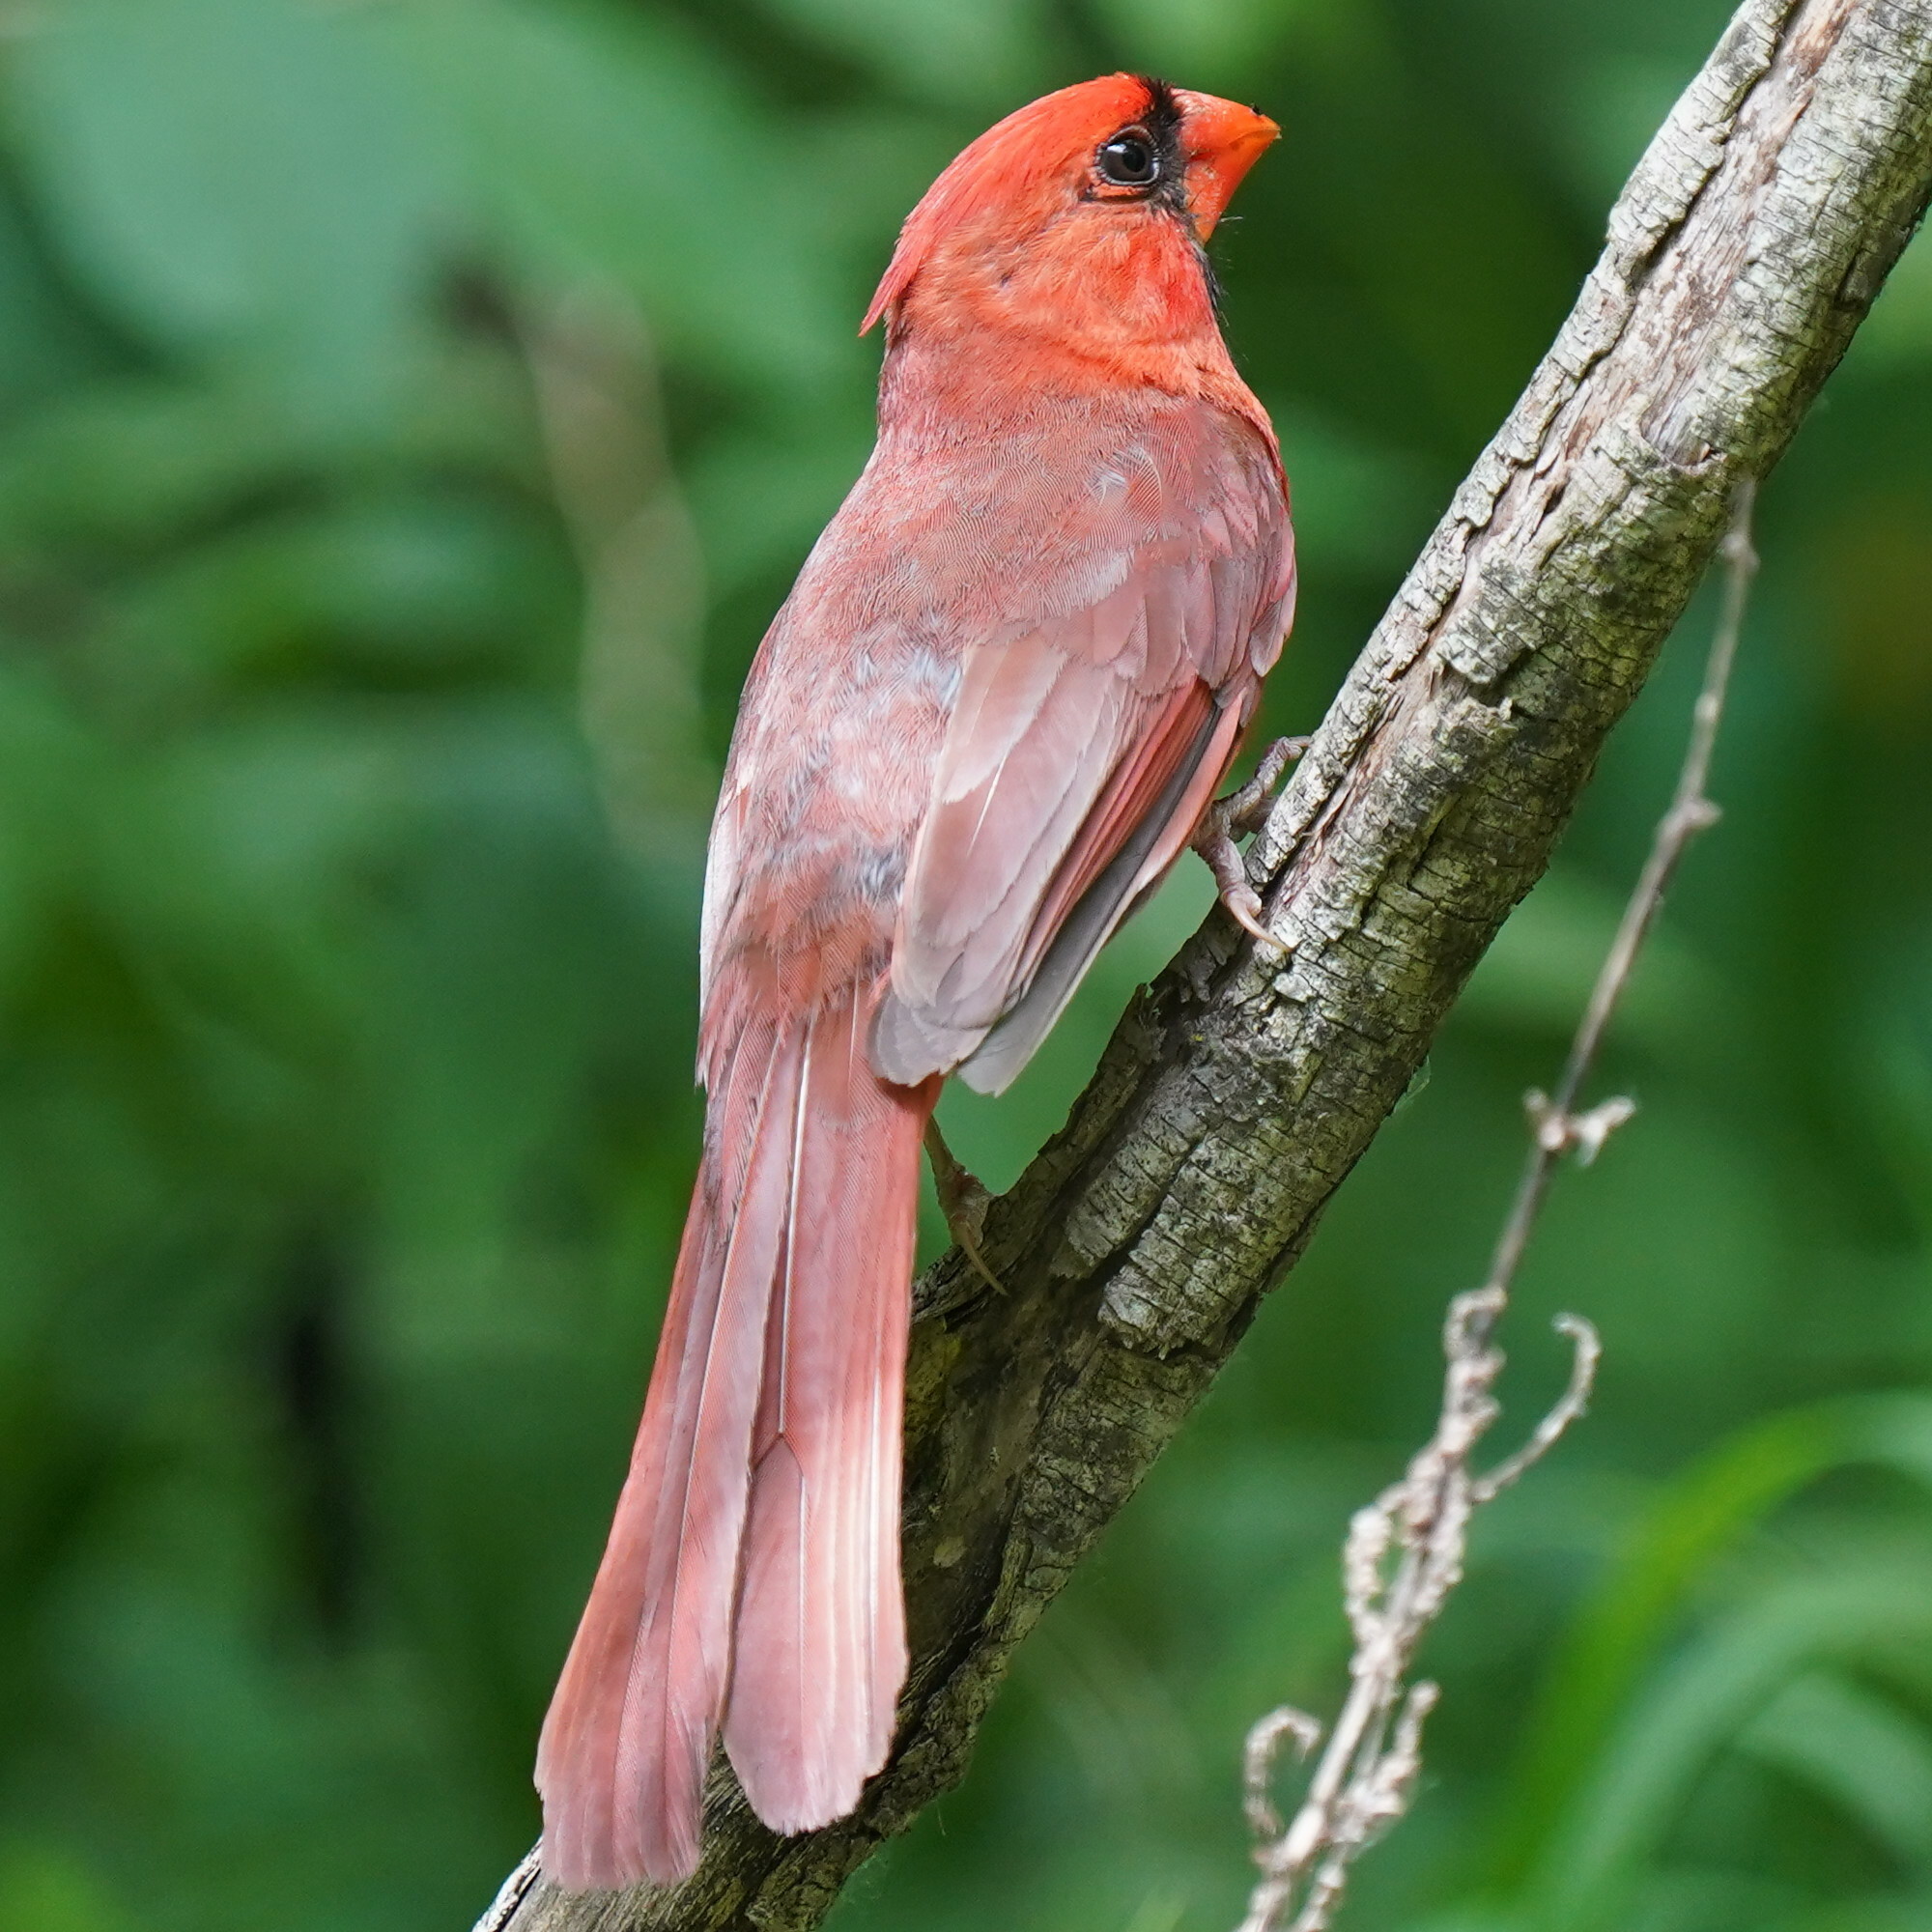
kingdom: Animalia
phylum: Chordata
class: Aves
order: Passeriformes
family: Cardinalidae
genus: Cardinalis
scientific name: Cardinalis cardinalis
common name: Northern cardinal
